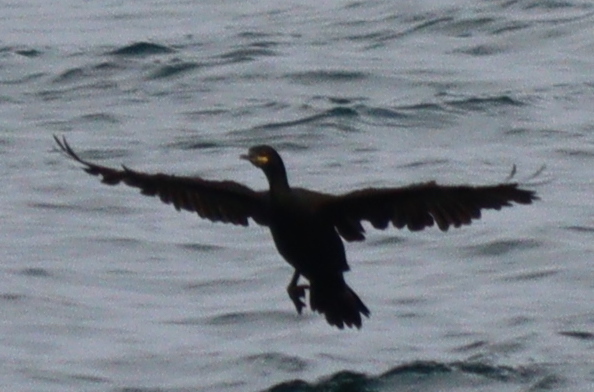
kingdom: Animalia
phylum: Chordata
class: Aves
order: Suliformes
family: Phalacrocoracidae
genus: Phalacrocorax
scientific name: Phalacrocorax aristotelis
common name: European shag
